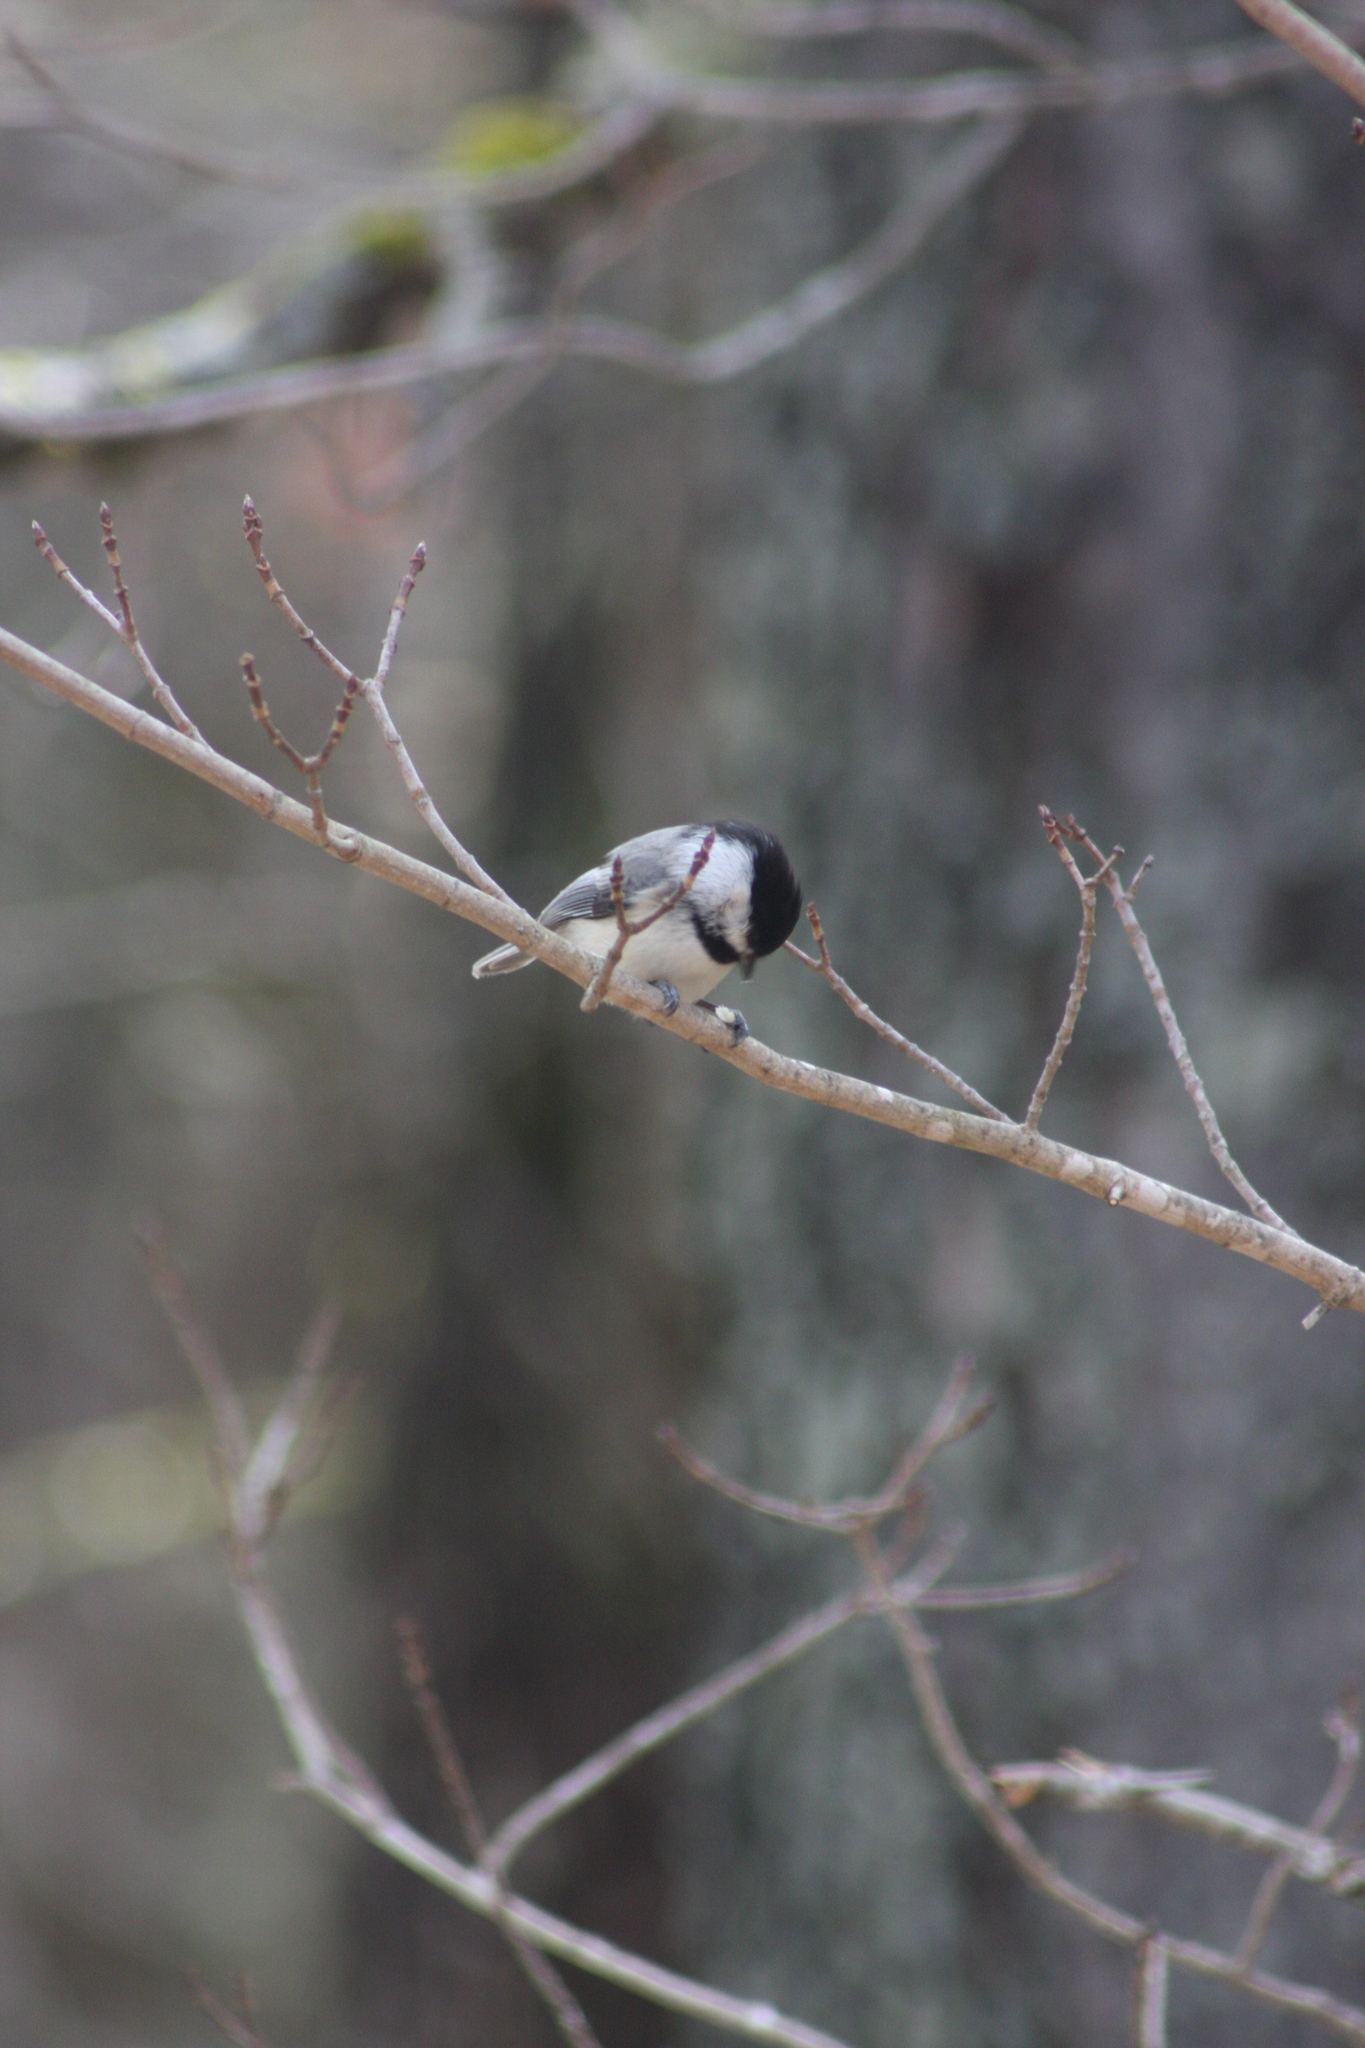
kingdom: Animalia
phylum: Chordata
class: Aves
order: Passeriformes
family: Paridae
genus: Poecile
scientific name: Poecile atricapillus
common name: Black-capped chickadee
